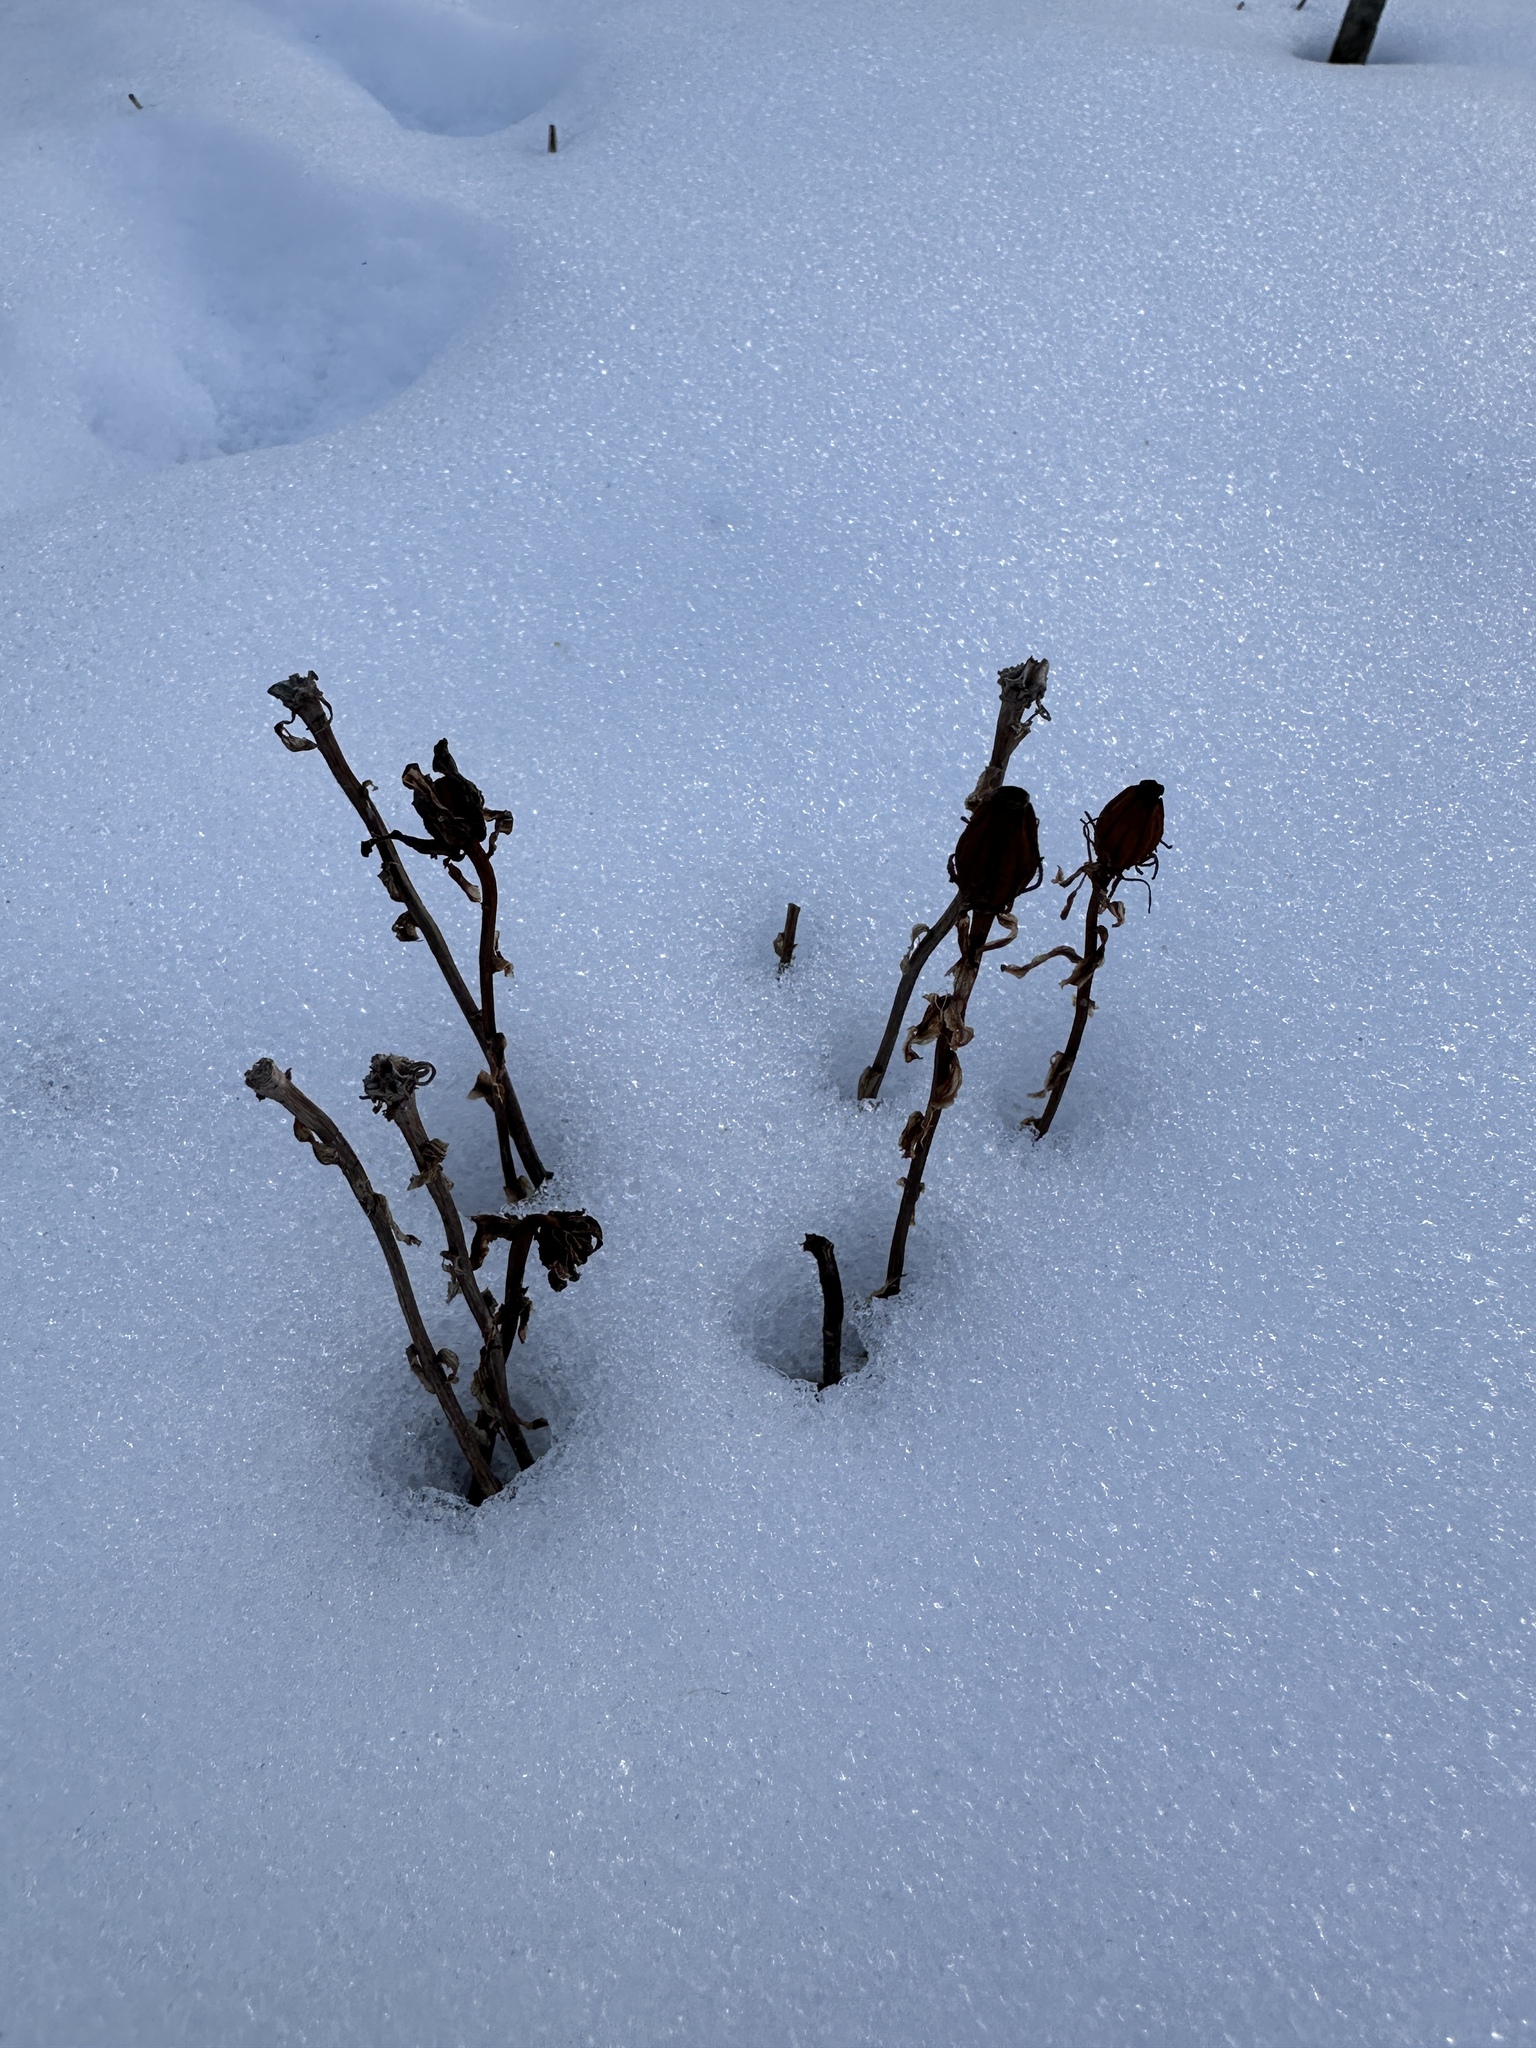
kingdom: Plantae
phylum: Tracheophyta
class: Magnoliopsida
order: Ericales
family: Ericaceae
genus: Monotropa
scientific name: Monotropa uniflora
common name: Convulsion root
